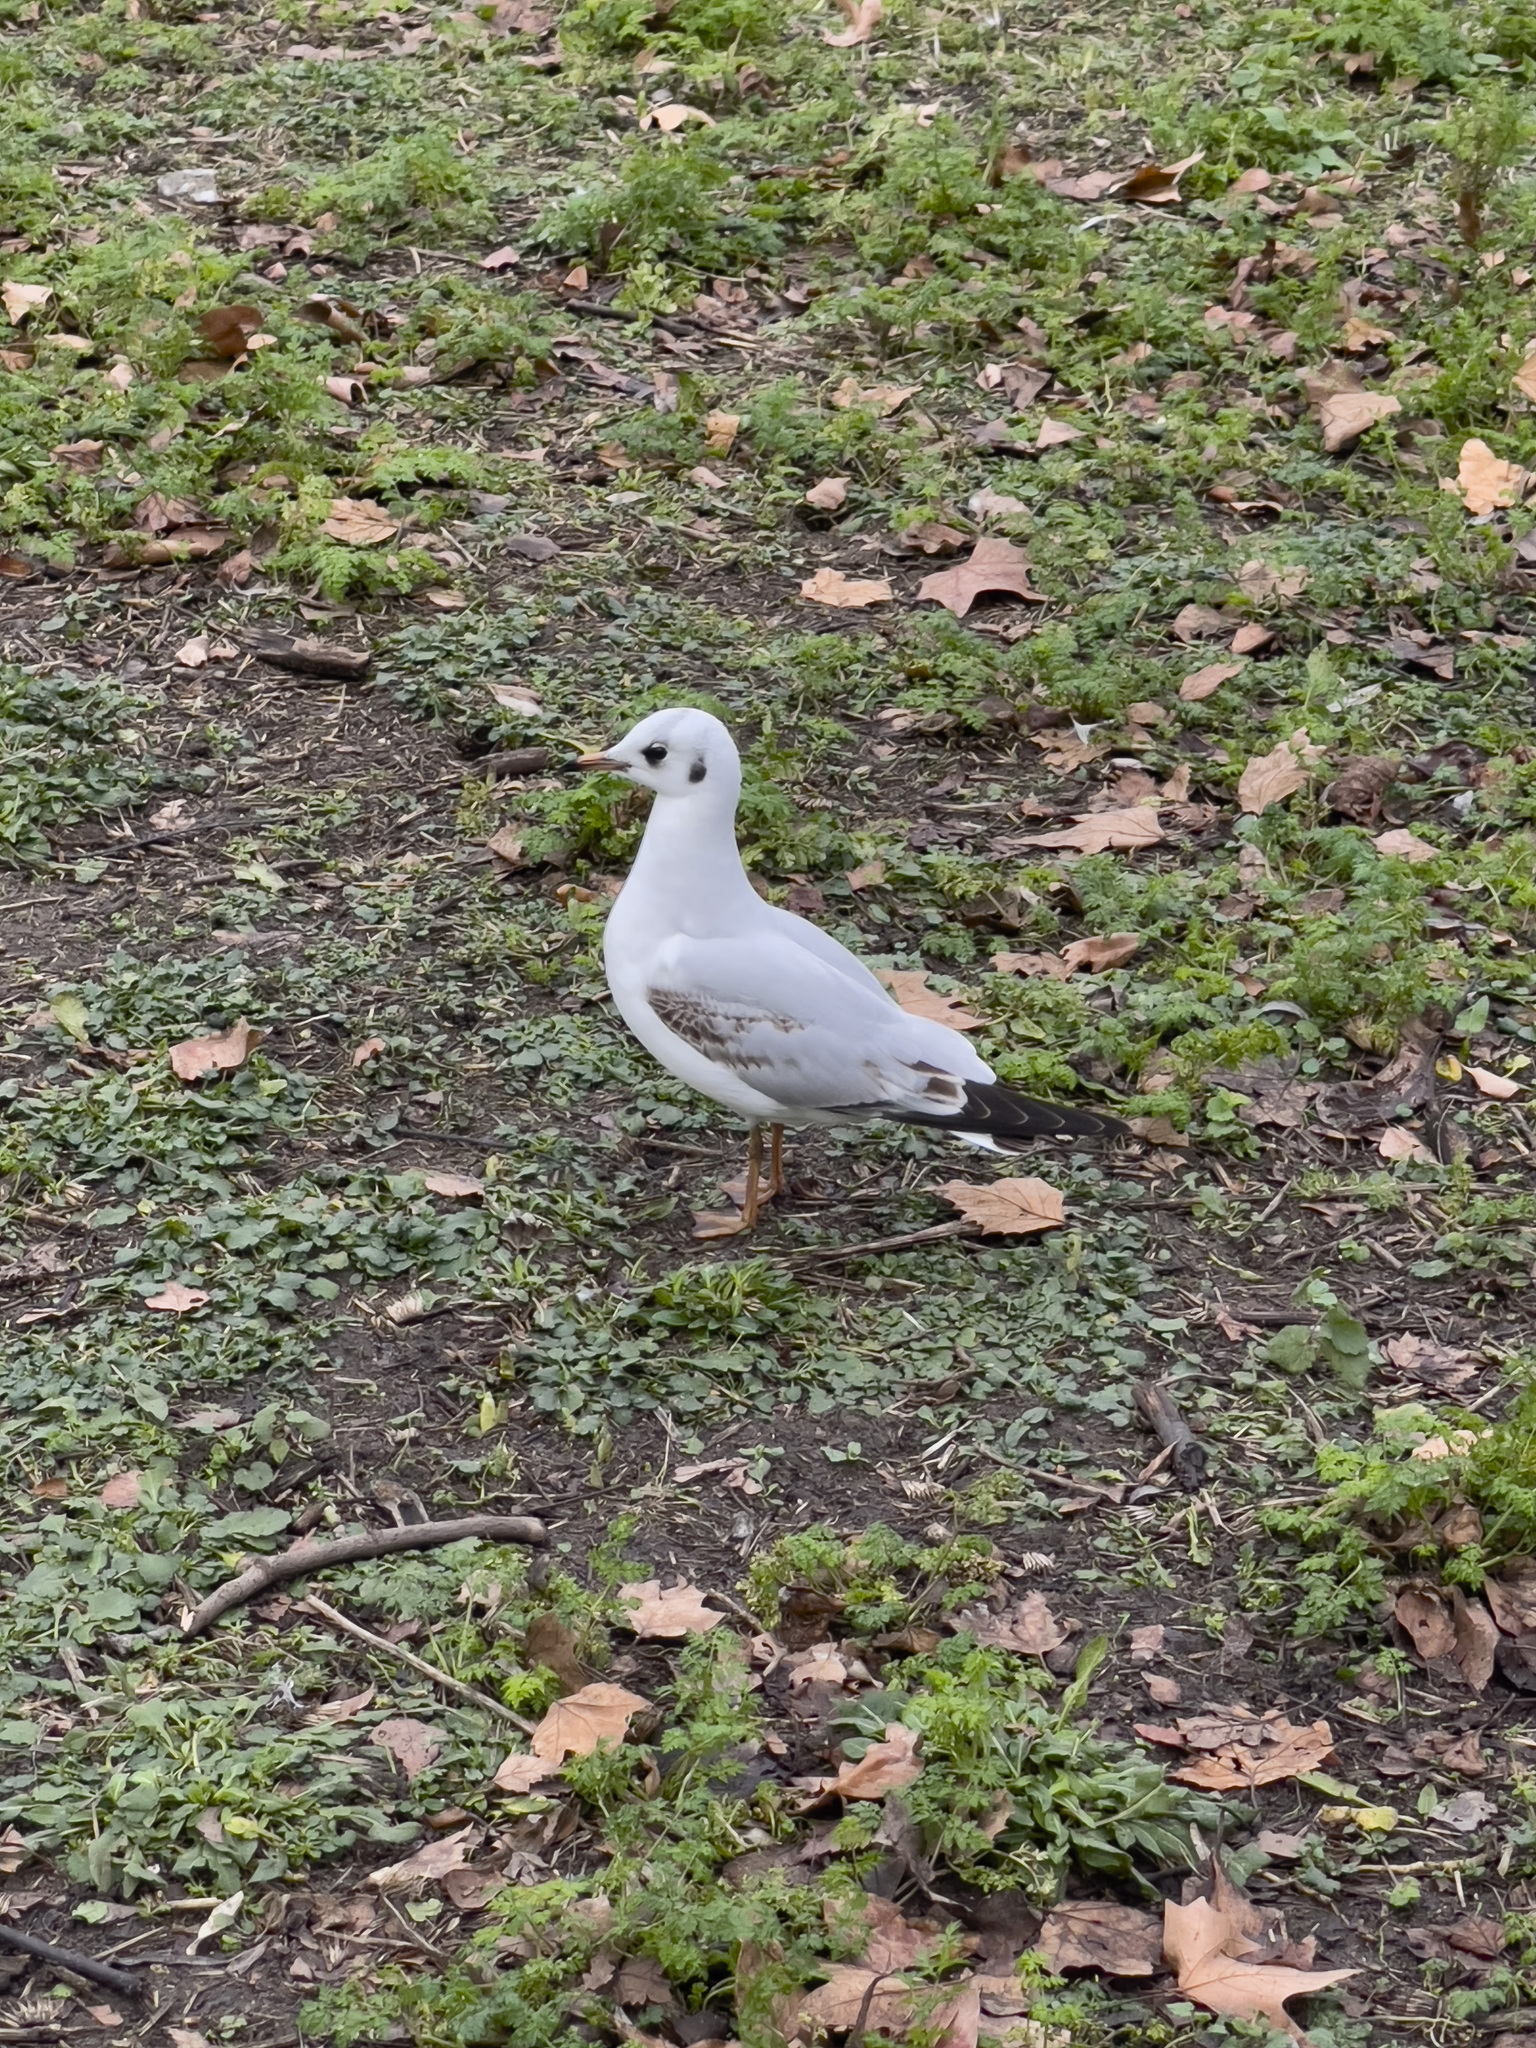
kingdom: Animalia
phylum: Chordata
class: Aves
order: Charadriiformes
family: Laridae
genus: Chroicocephalus
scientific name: Chroicocephalus ridibundus
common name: Black-headed gull
